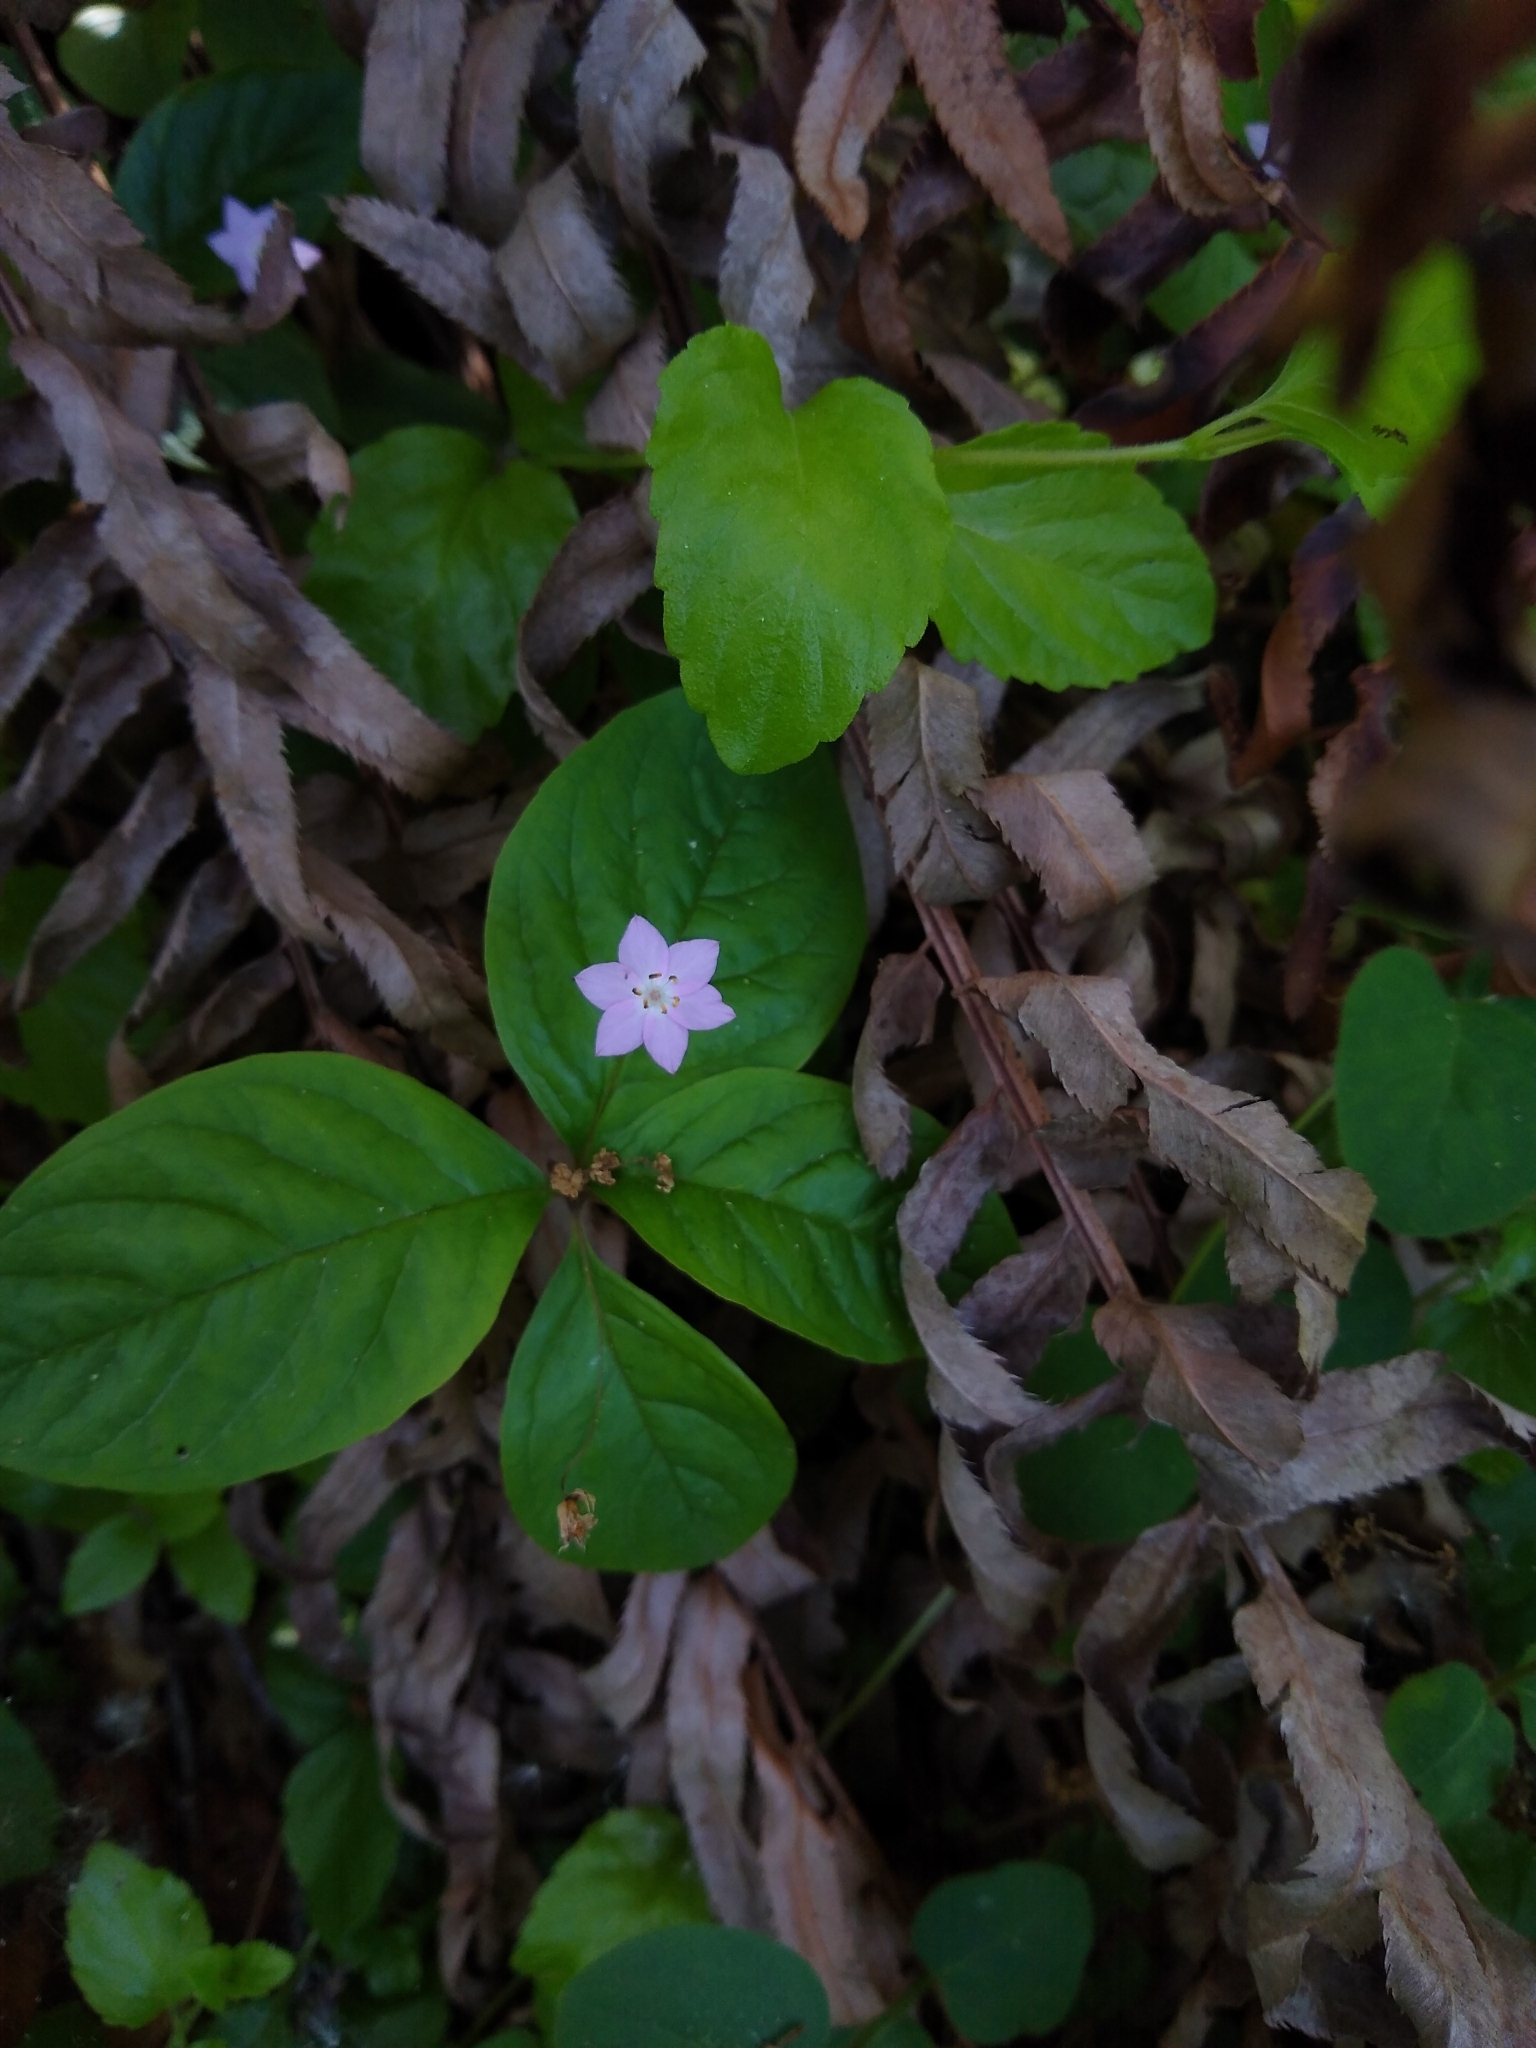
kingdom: Plantae
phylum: Tracheophyta
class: Magnoliopsida
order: Ericales
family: Primulaceae
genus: Lysimachia
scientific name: Lysimachia latifolia
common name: Pacific starflower
